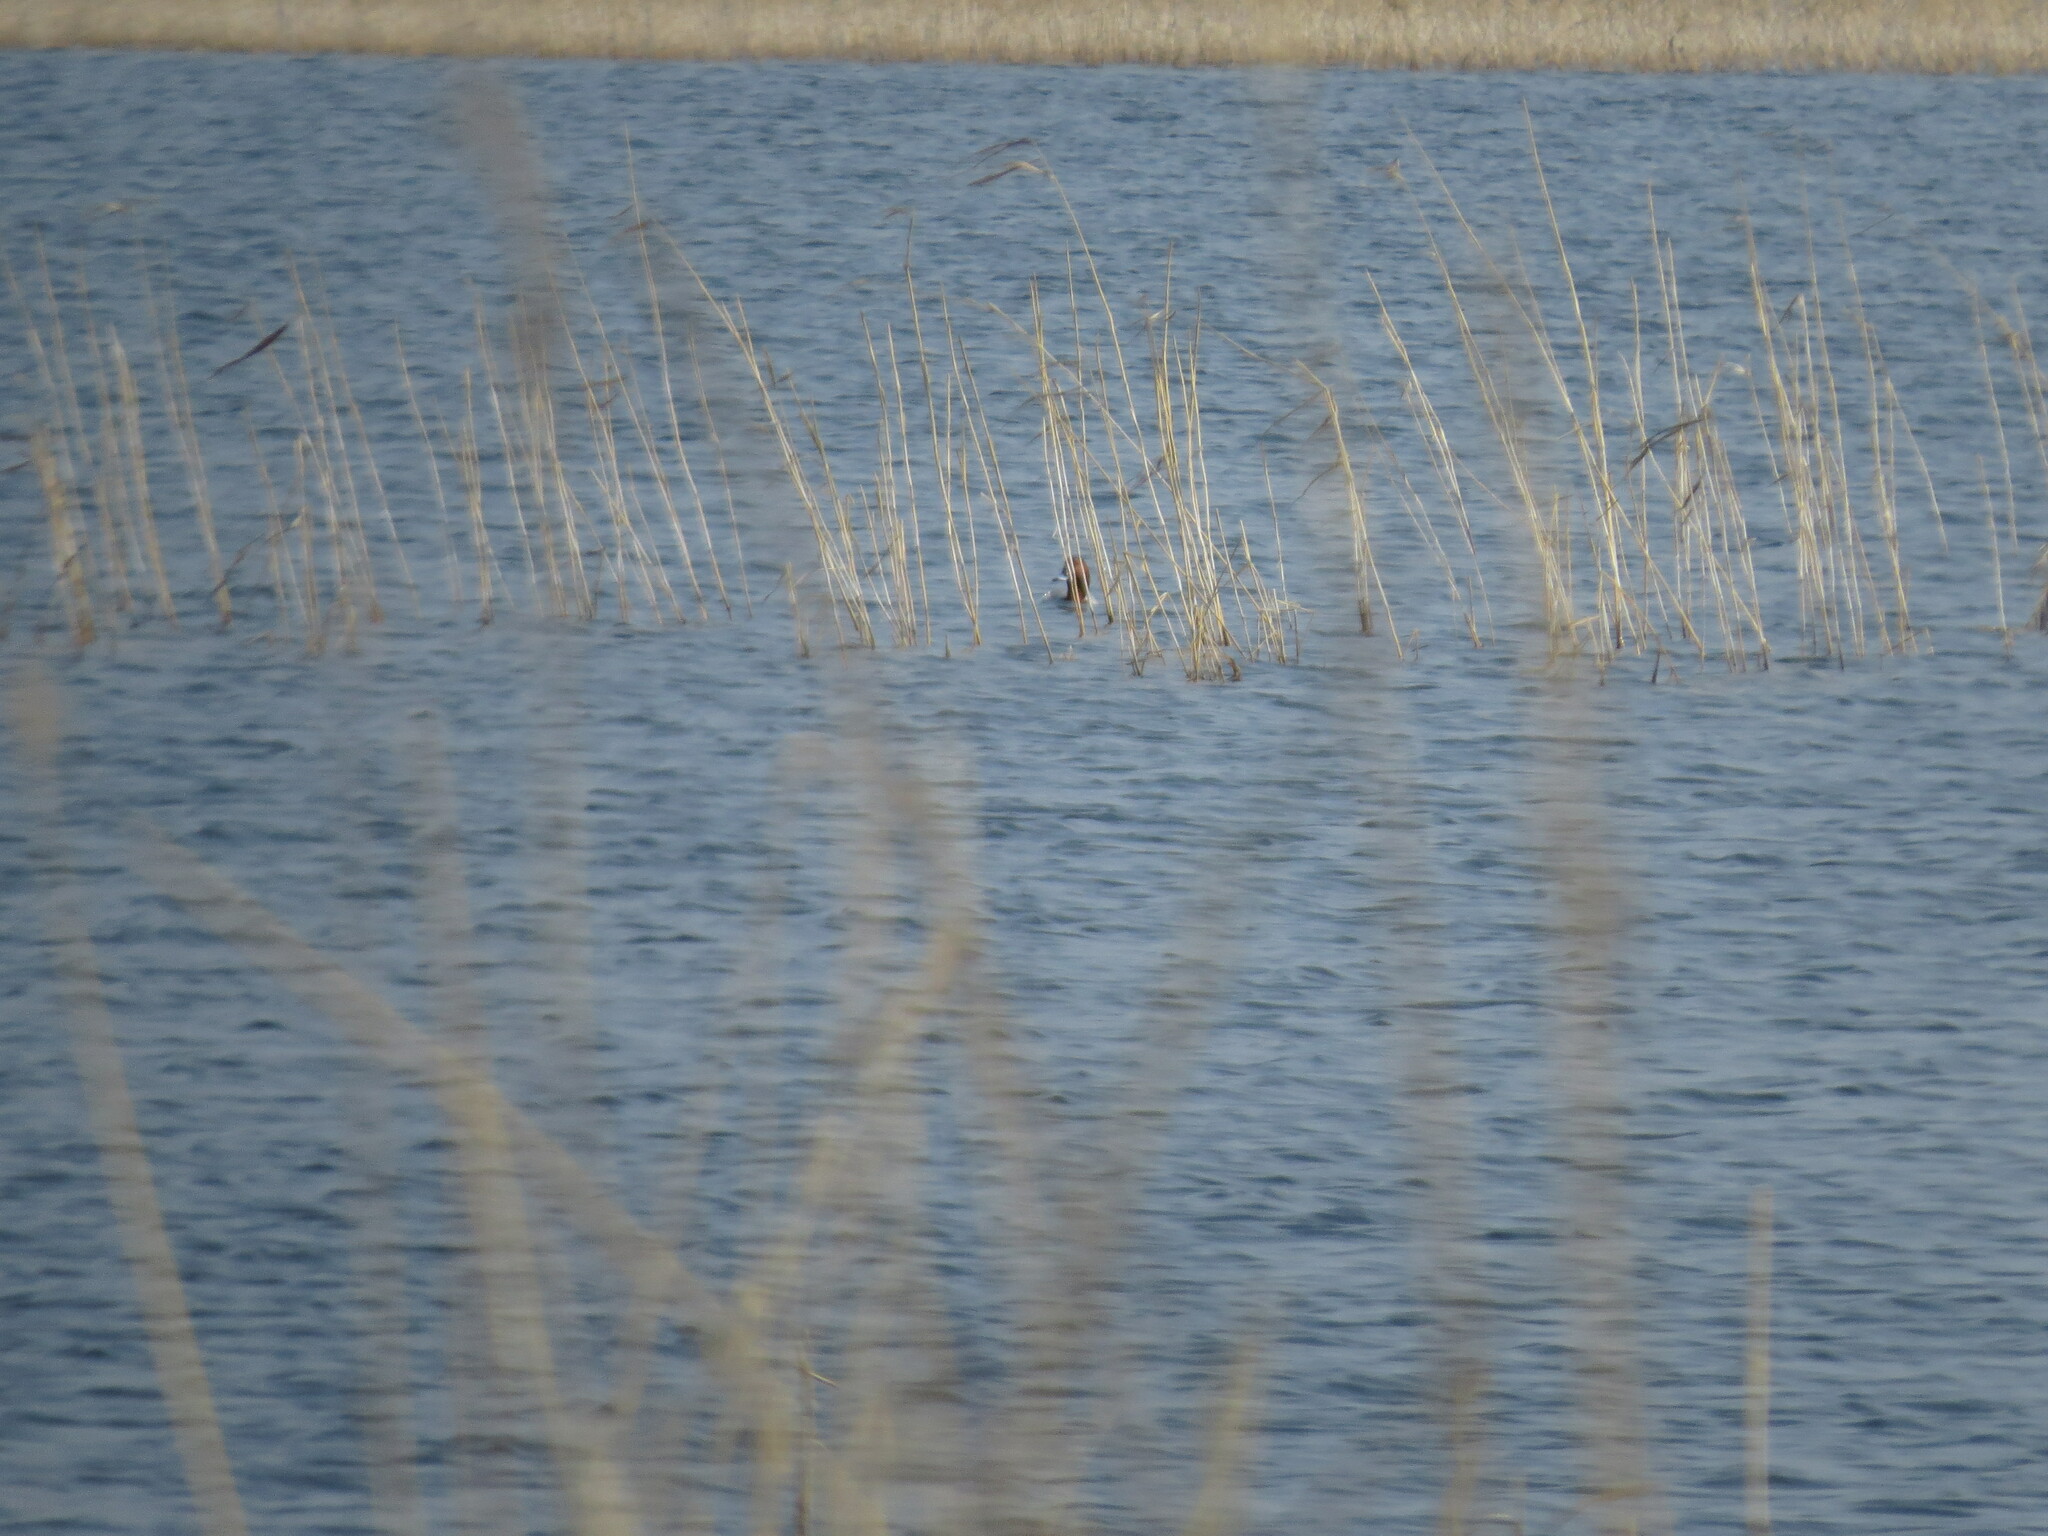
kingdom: Animalia
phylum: Chordata
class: Aves
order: Anseriformes
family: Anatidae
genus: Aythya
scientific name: Aythya ferina
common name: Common pochard
